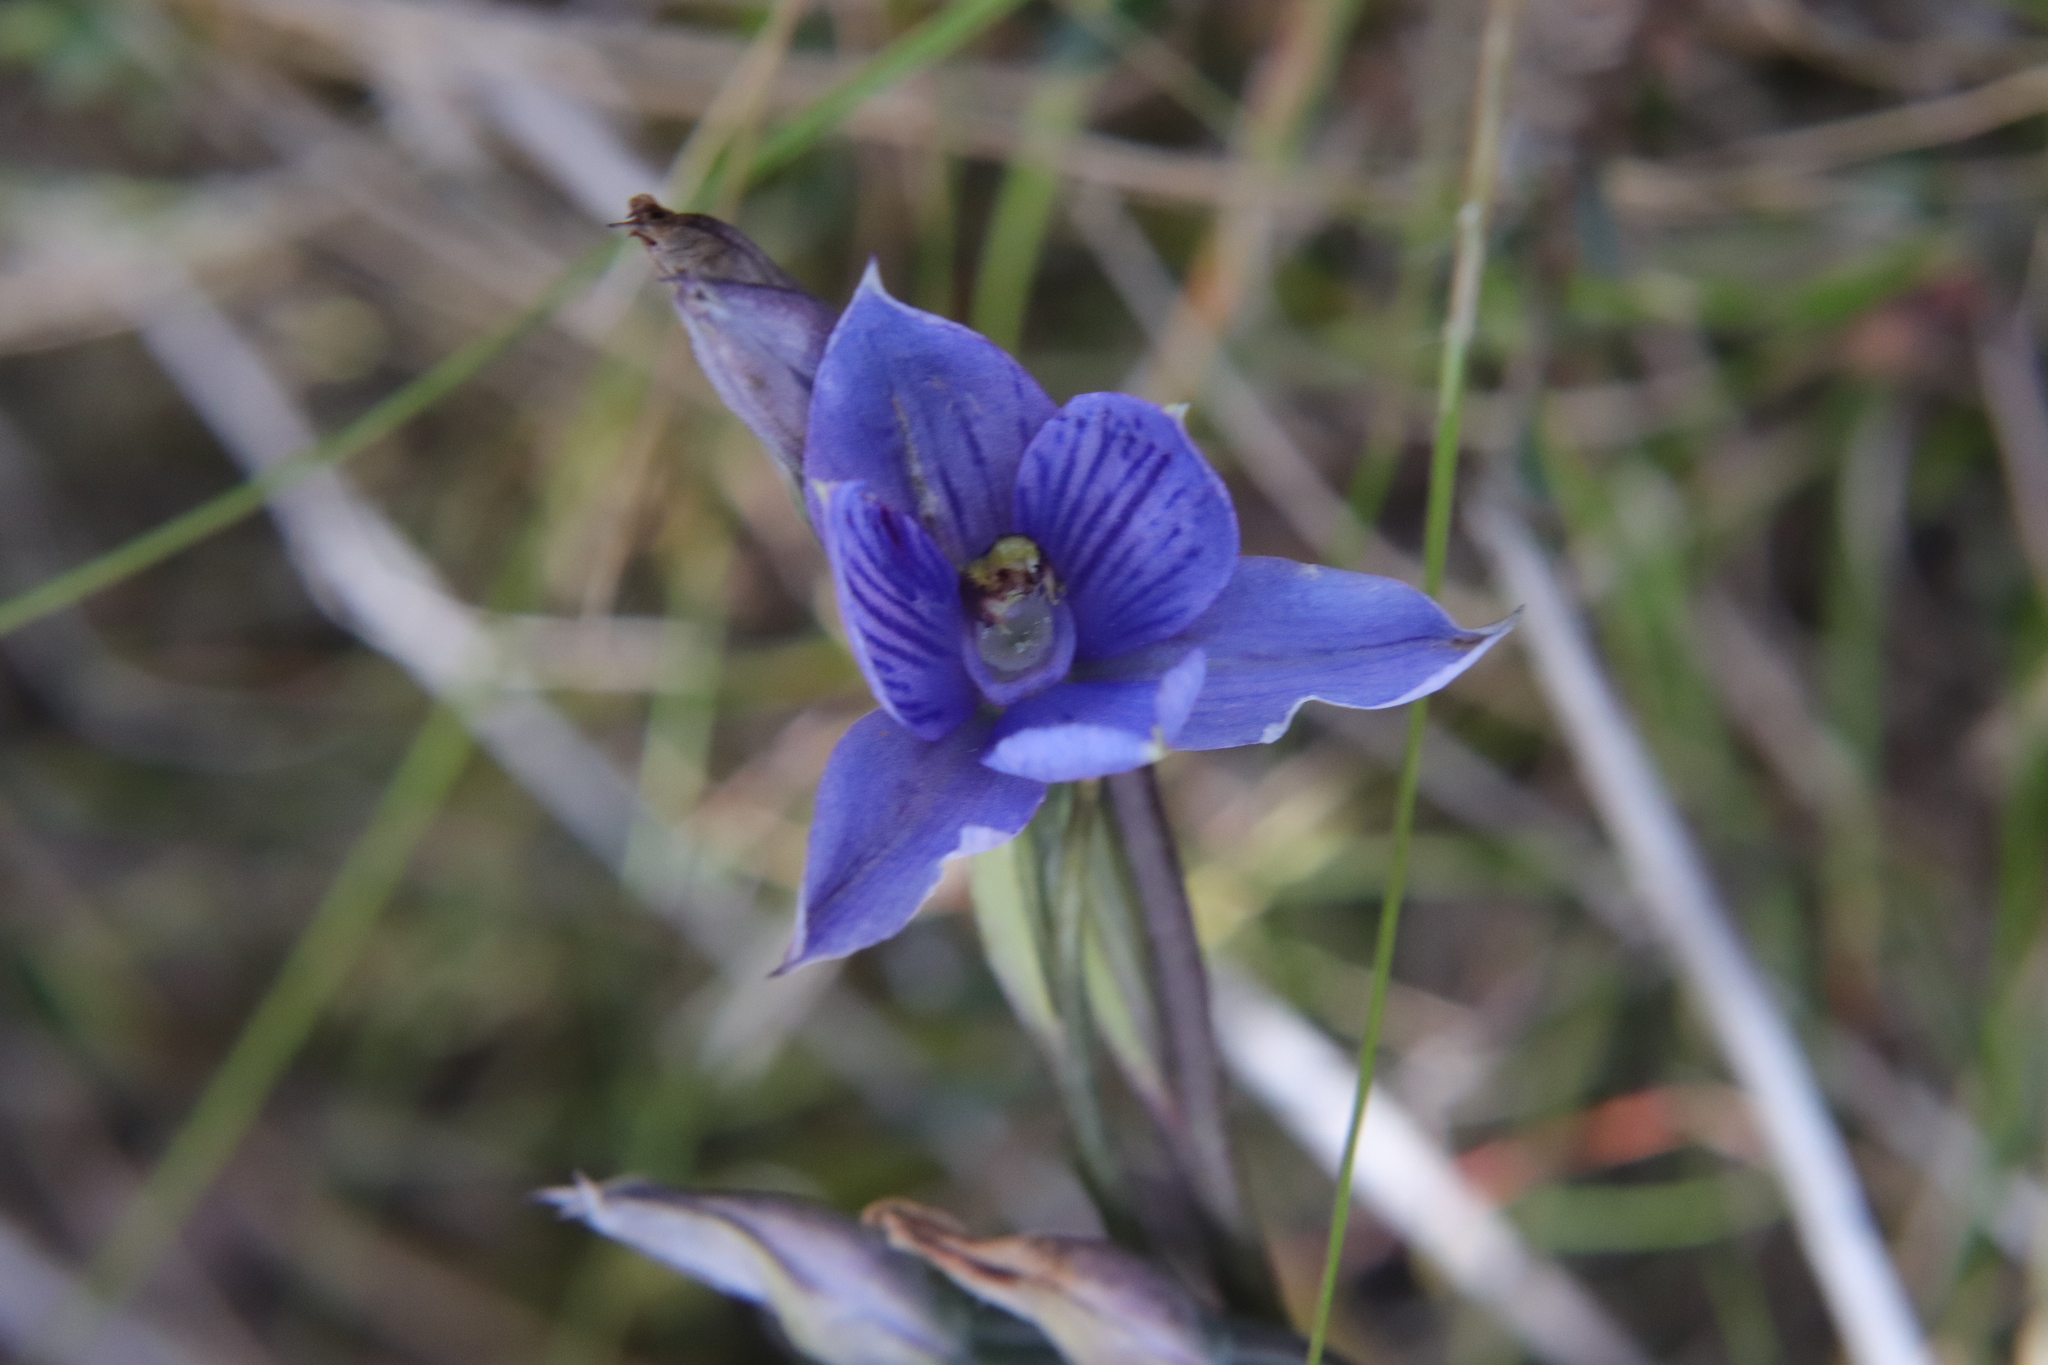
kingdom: Plantae
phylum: Tracheophyta
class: Liliopsida
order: Asparagales
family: Orchidaceae
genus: Thelymitra
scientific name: Thelymitra pulchella
